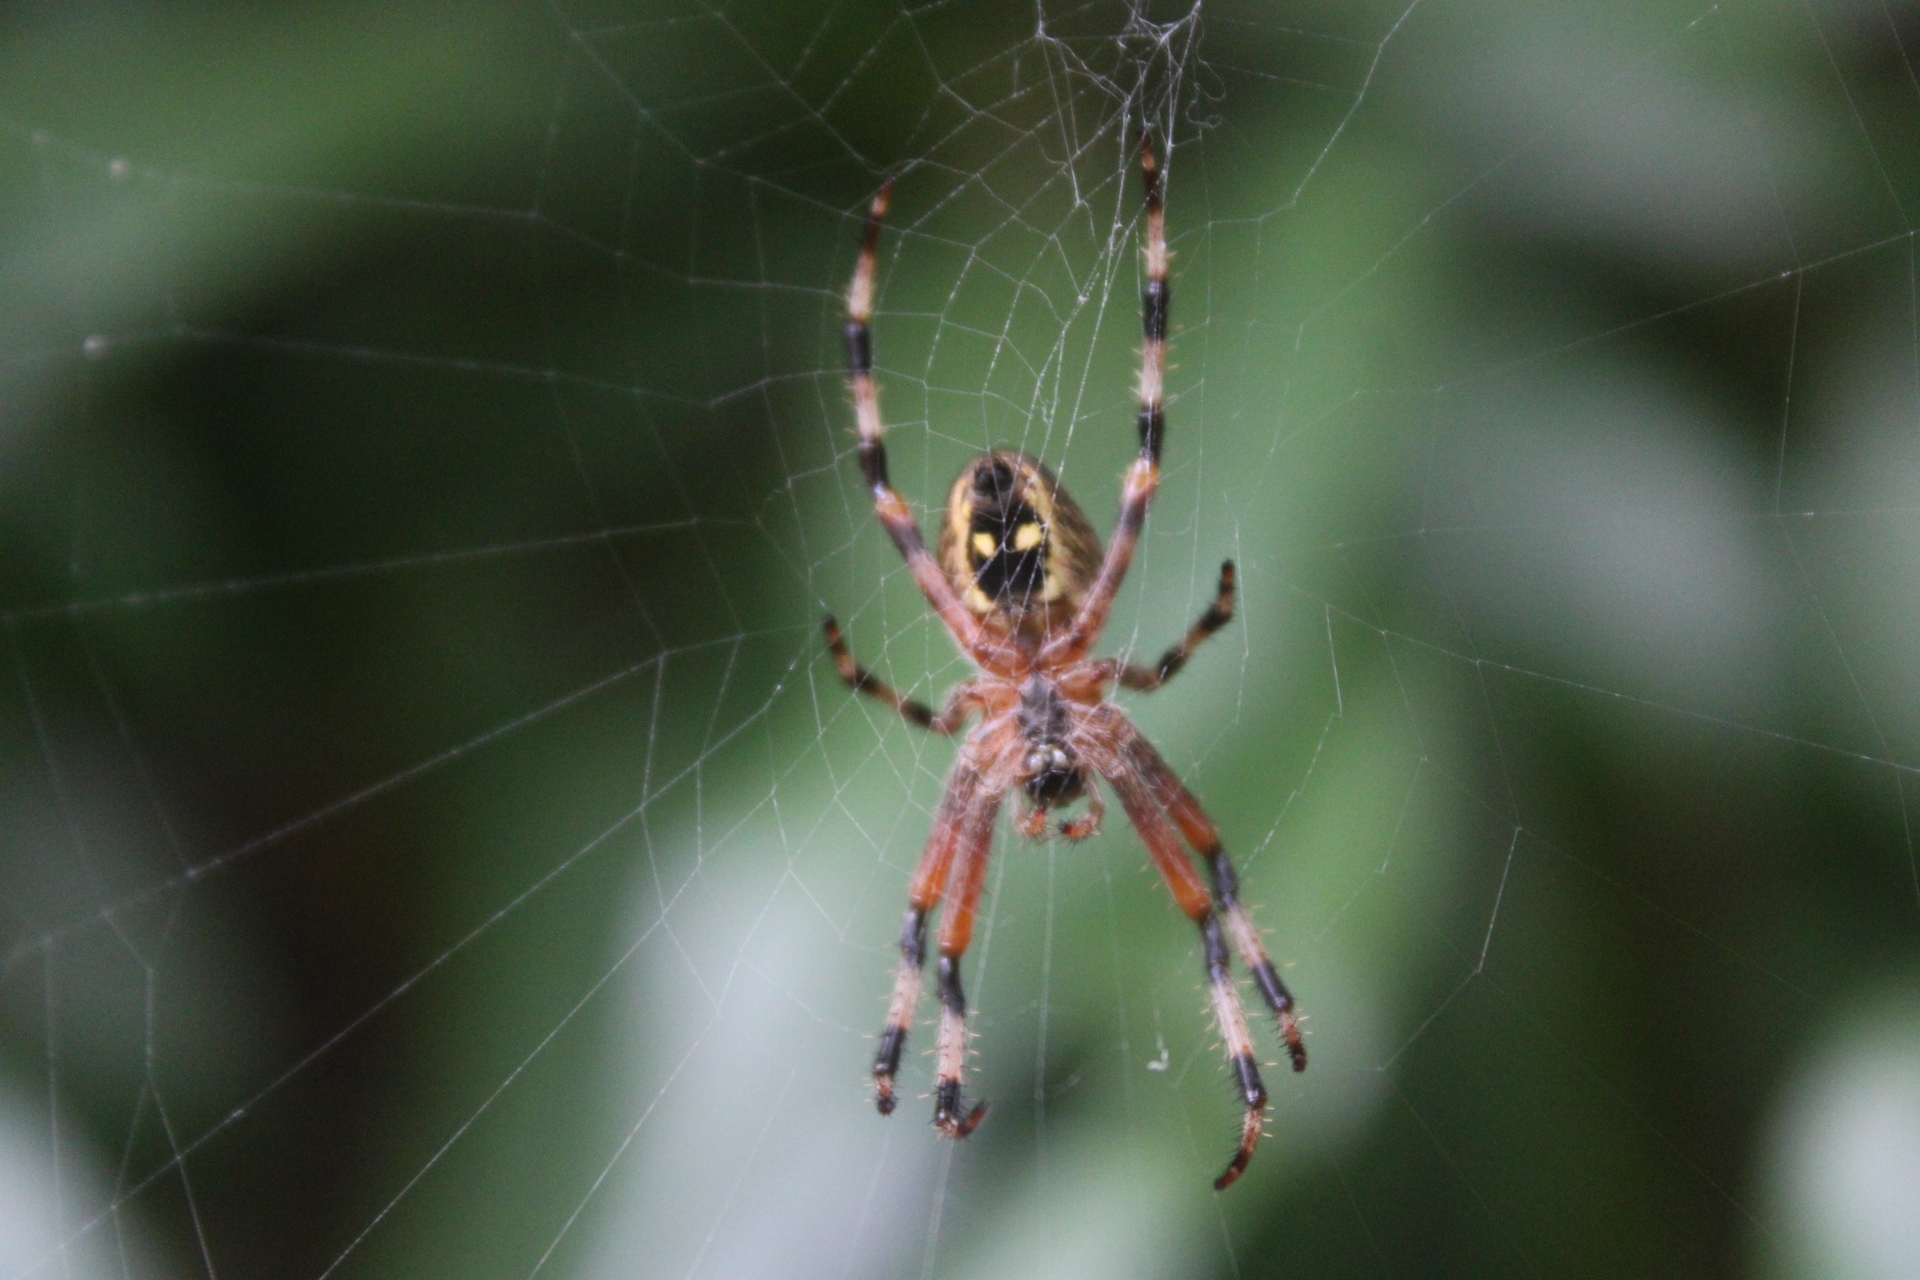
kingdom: Animalia
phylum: Arthropoda
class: Arachnida
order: Araneae
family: Araneidae
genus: Araneus
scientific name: Araneus nordmanni
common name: Nordmann's orbweaver
